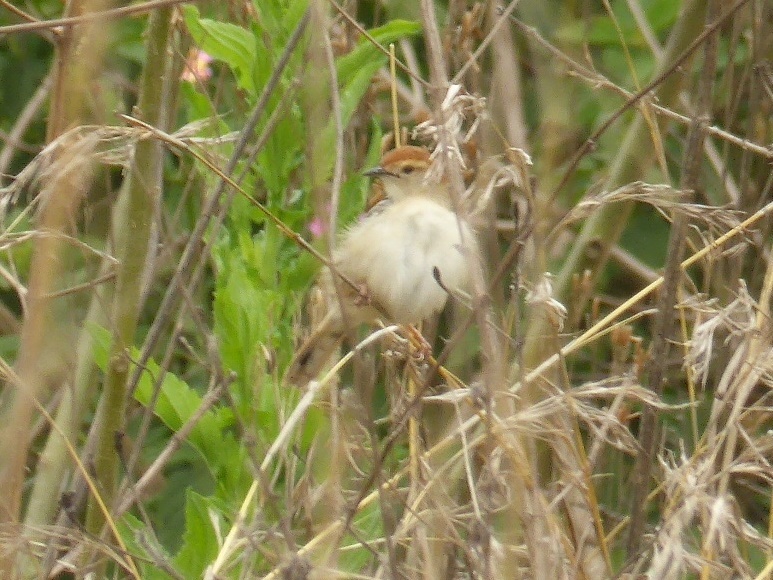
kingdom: Animalia
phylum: Chordata
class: Aves
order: Passeriformes
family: Cisticolidae
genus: Cisticola
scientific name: Cisticola tinniens
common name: Levaillant's cisticola
